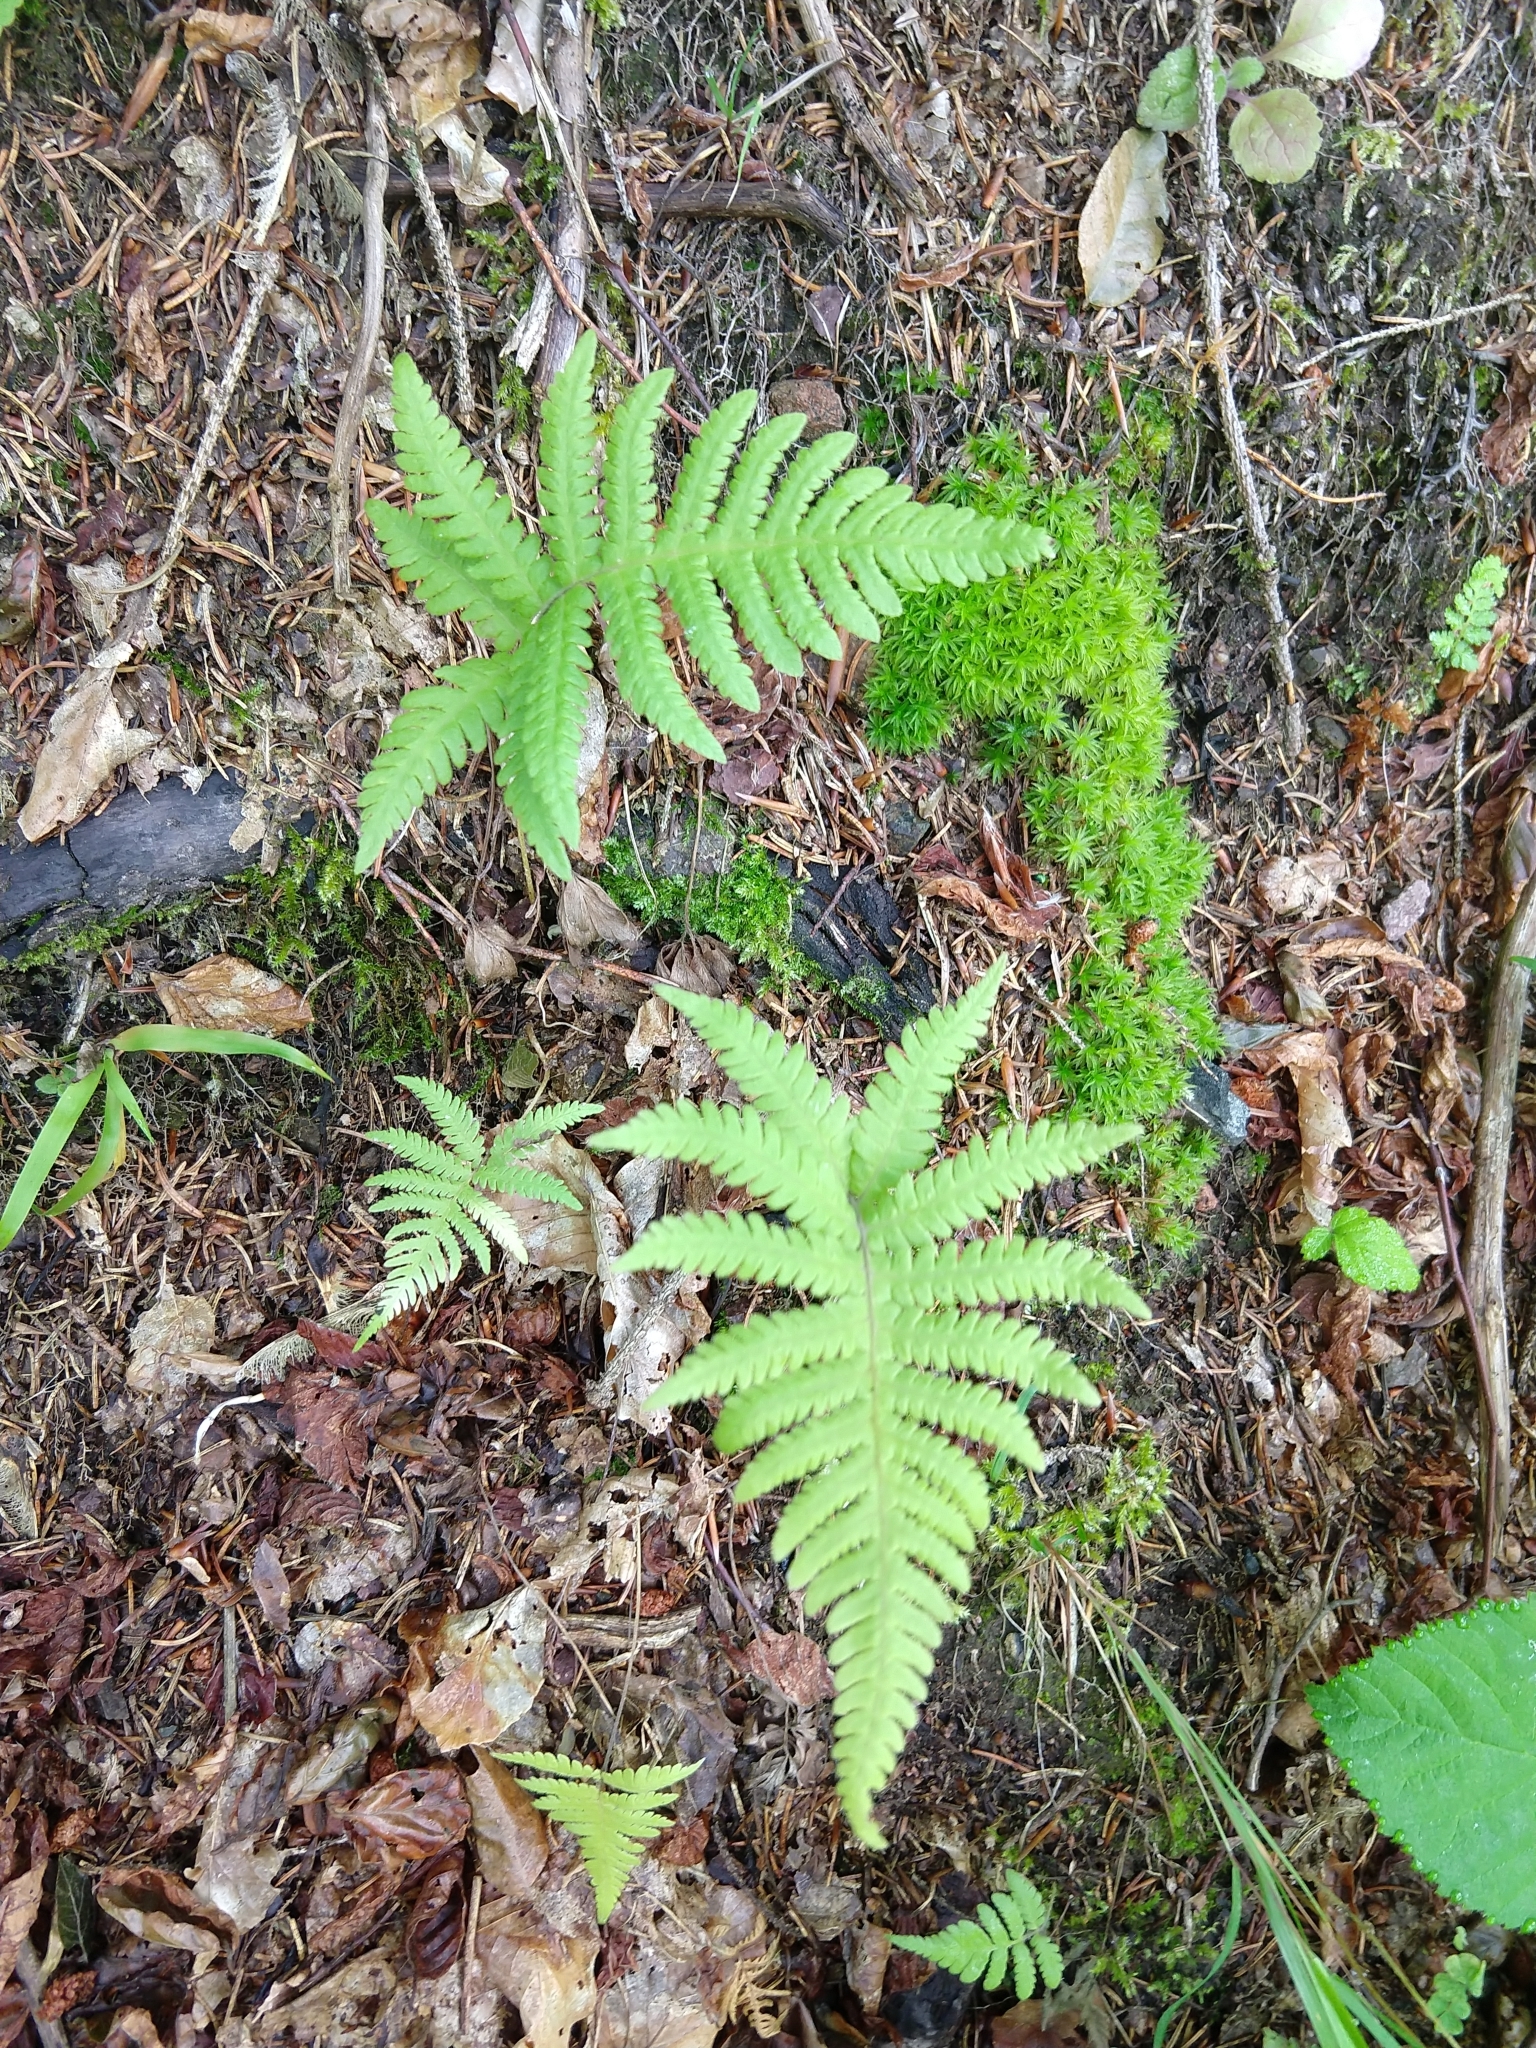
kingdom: Plantae
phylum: Tracheophyta
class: Polypodiopsida
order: Polypodiales
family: Thelypteridaceae
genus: Phegopteris
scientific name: Phegopteris connectilis
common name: Beech fern
